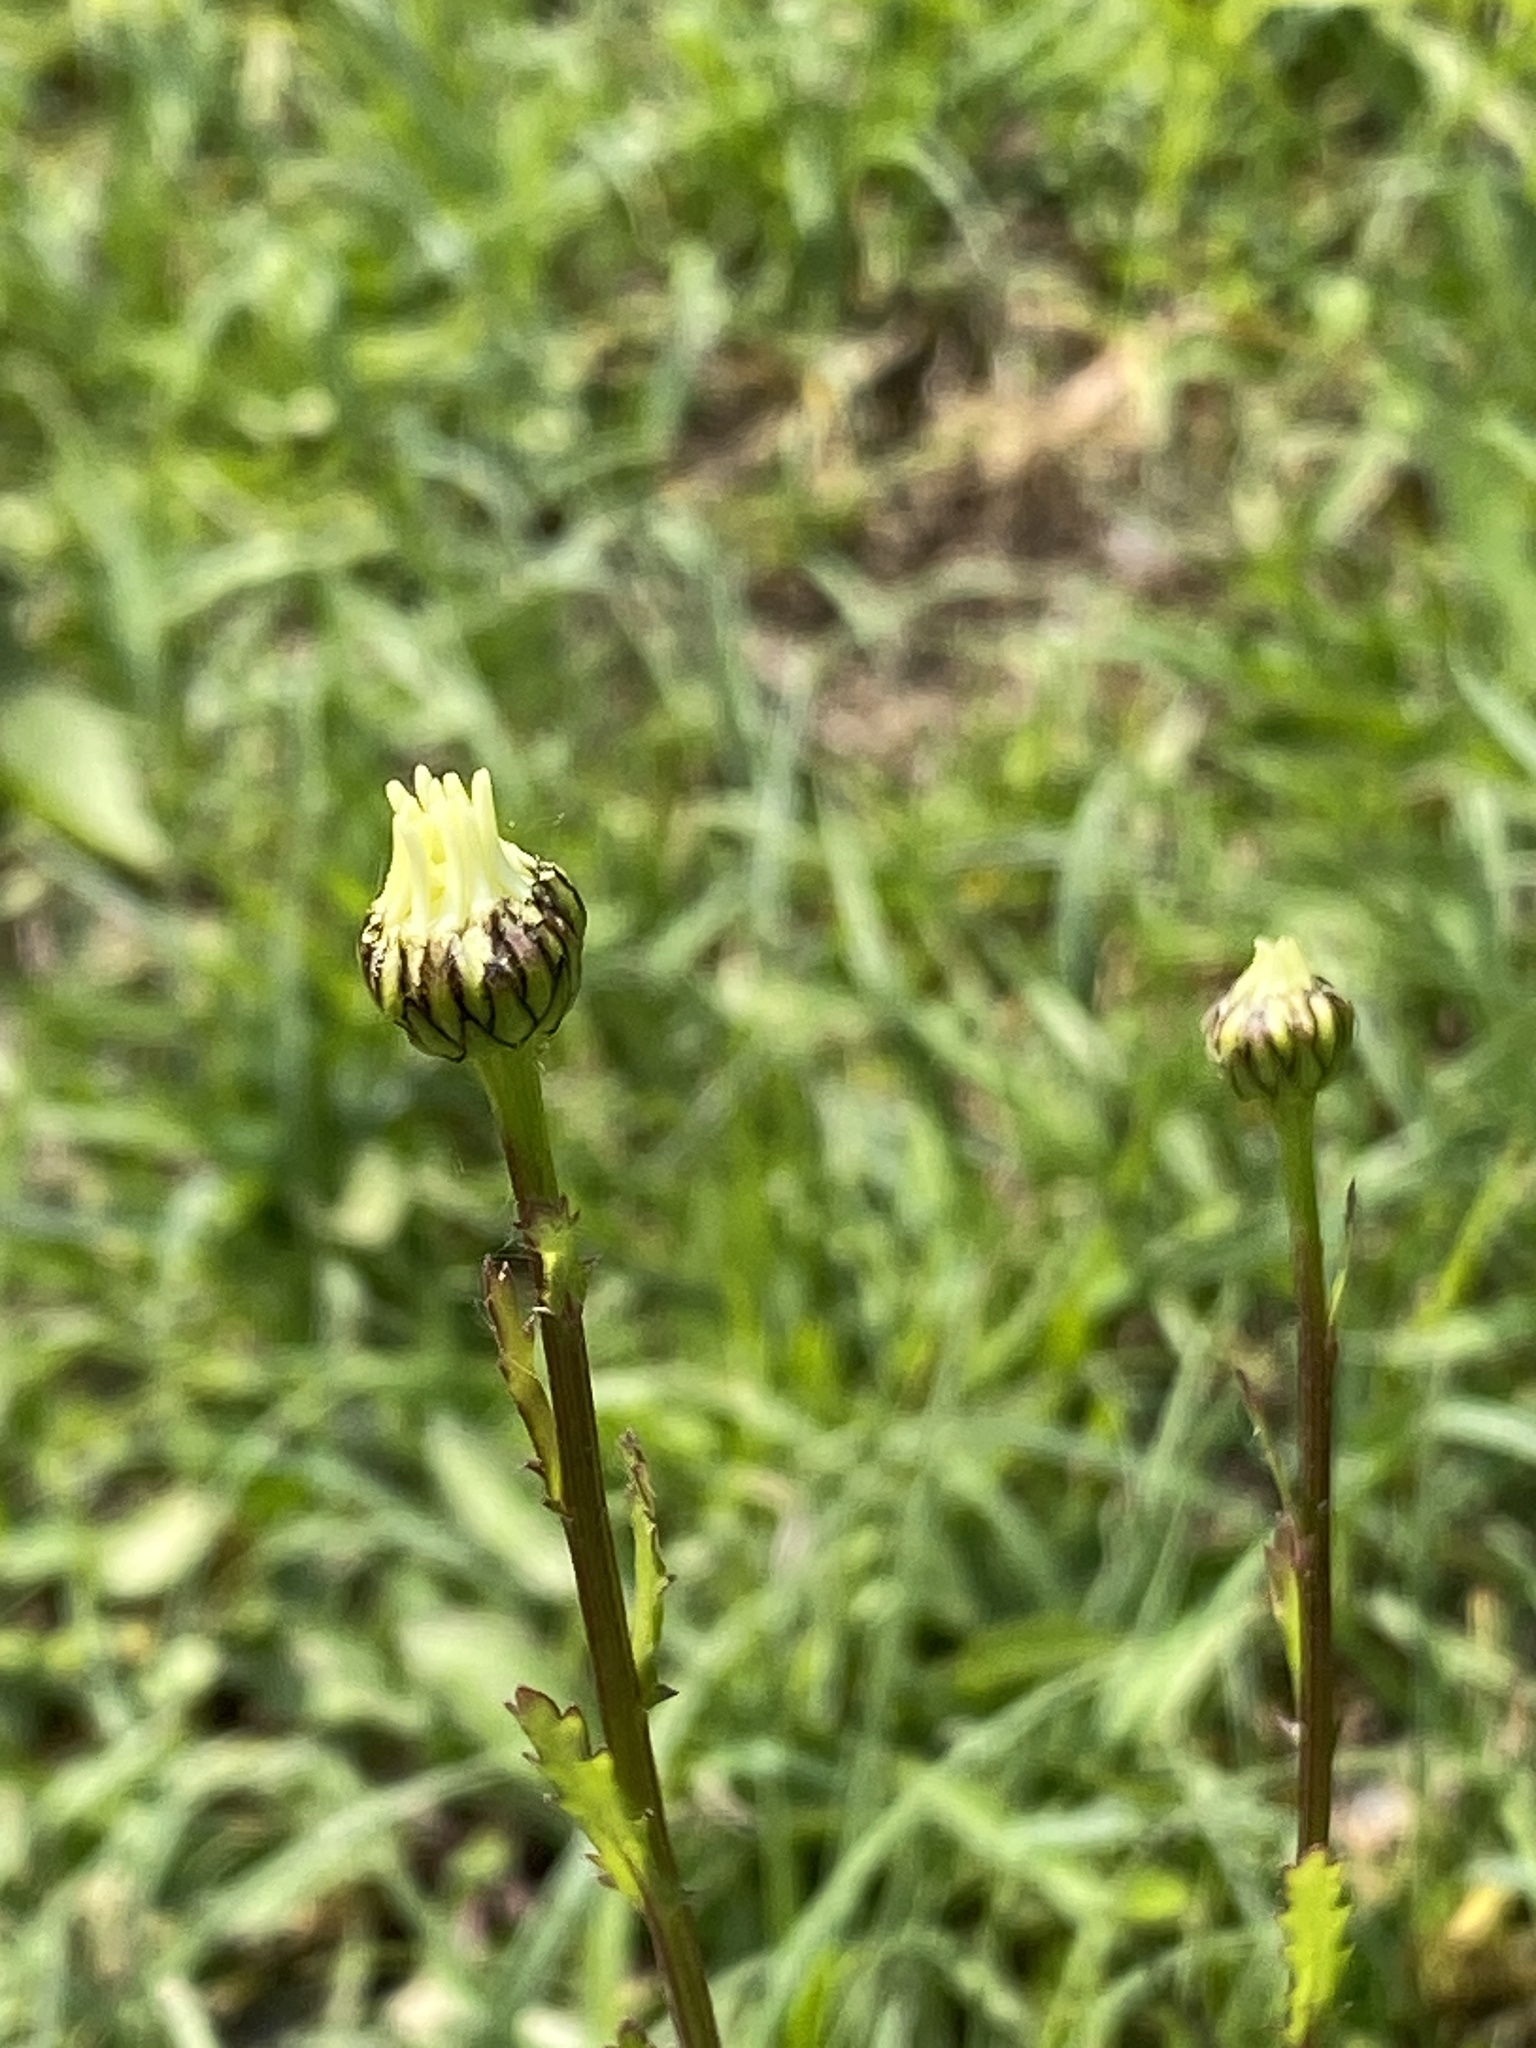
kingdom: Plantae
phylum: Tracheophyta
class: Magnoliopsida
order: Asterales
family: Asteraceae
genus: Leucanthemum
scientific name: Leucanthemum vulgare
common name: Oxeye daisy
